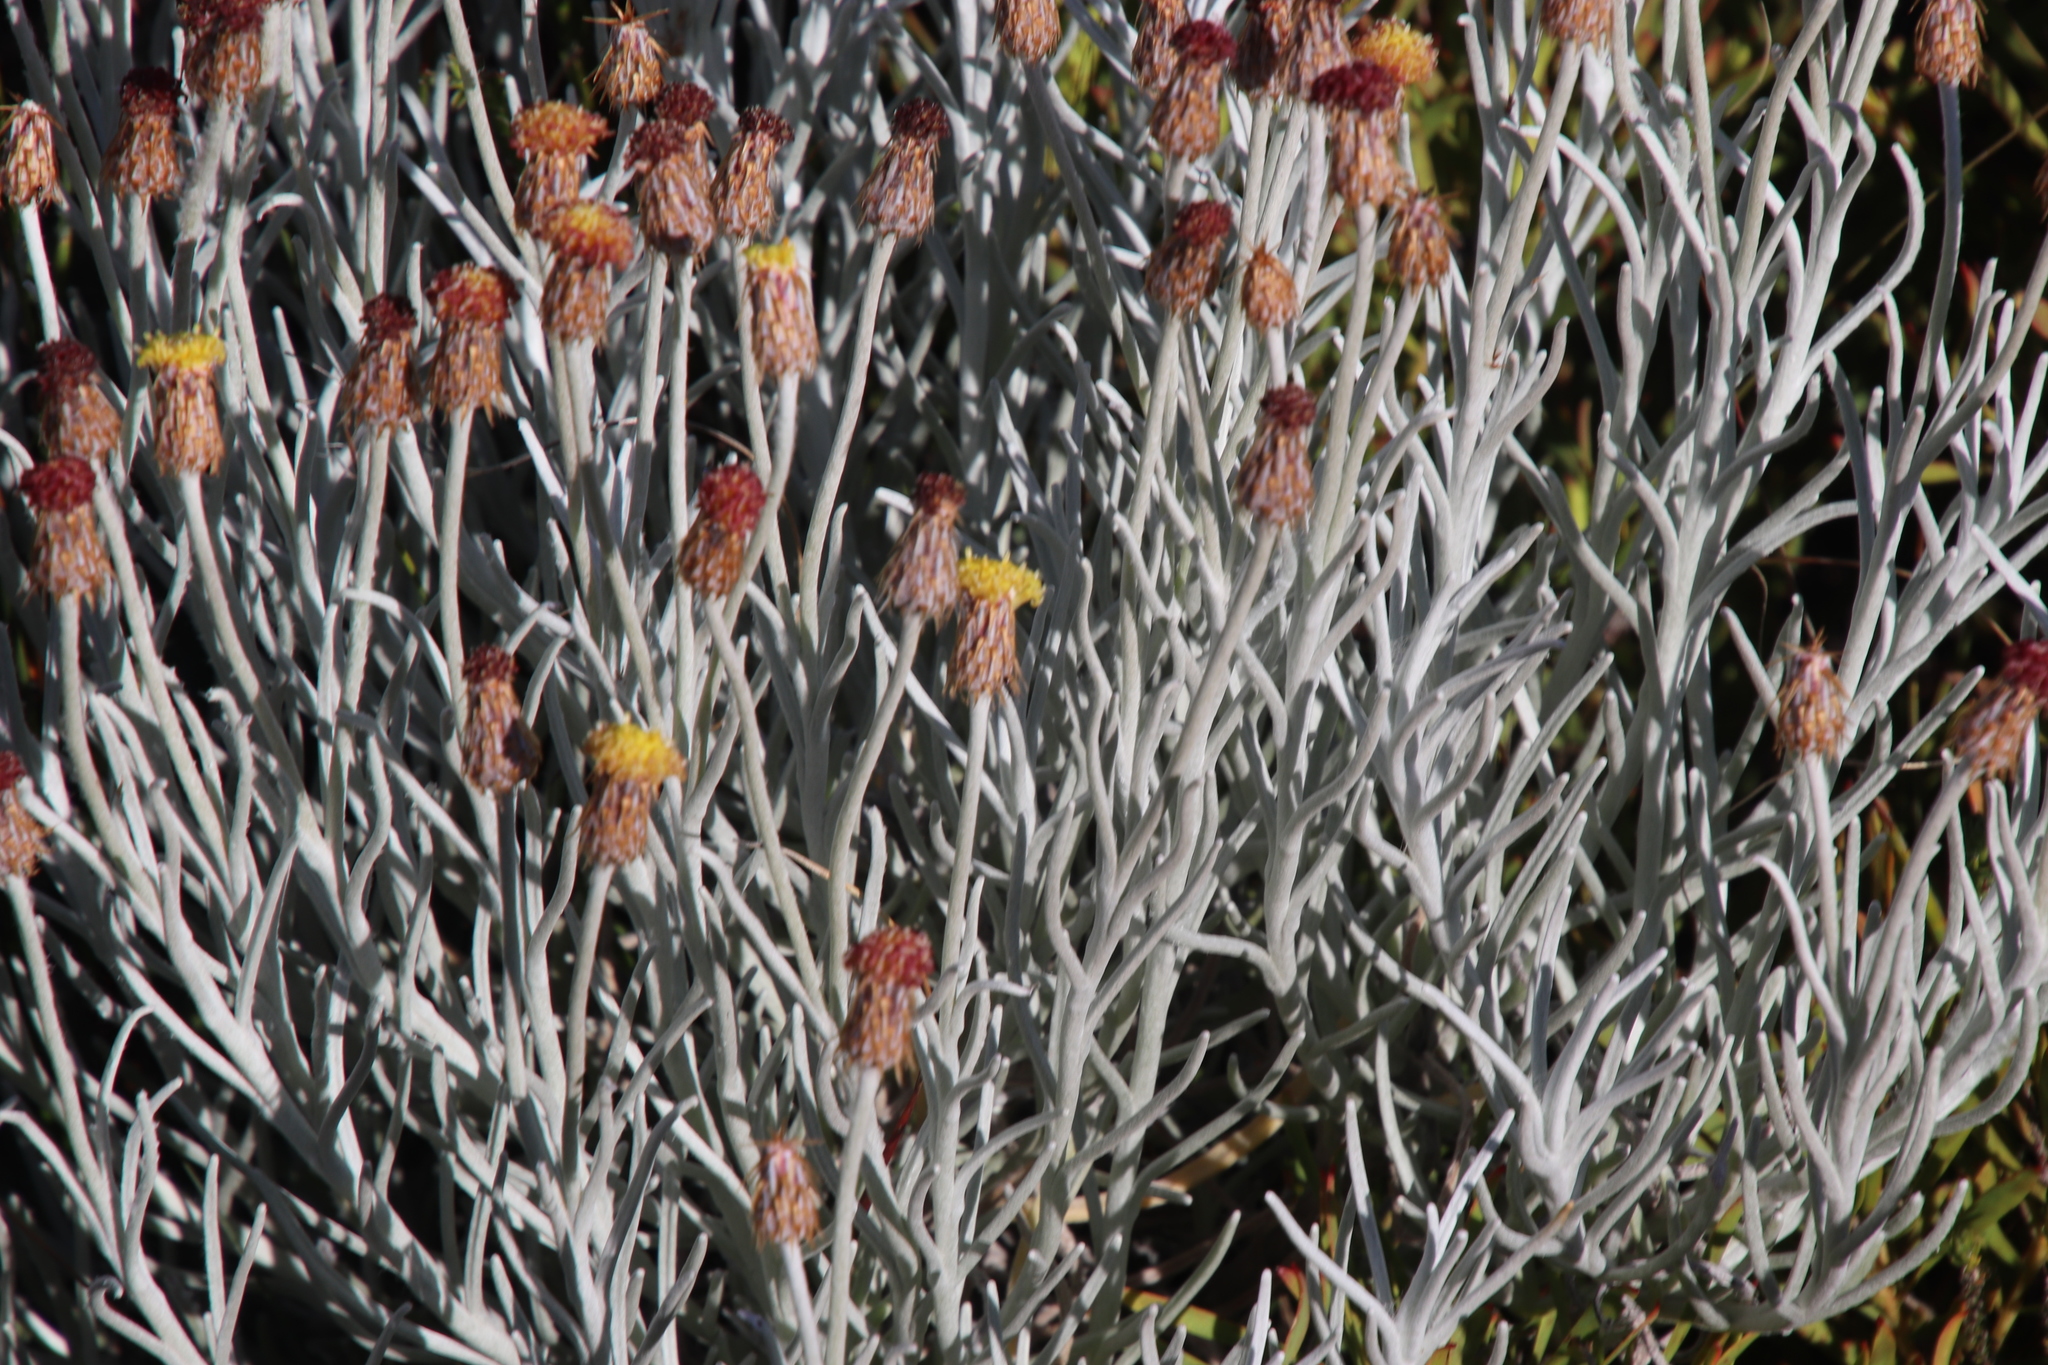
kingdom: Plantae
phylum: Tracheophyta
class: Magnoliopsida
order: Asterales
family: Asteraceae
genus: Syncarpha
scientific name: Syncarpha gnaphaloides
